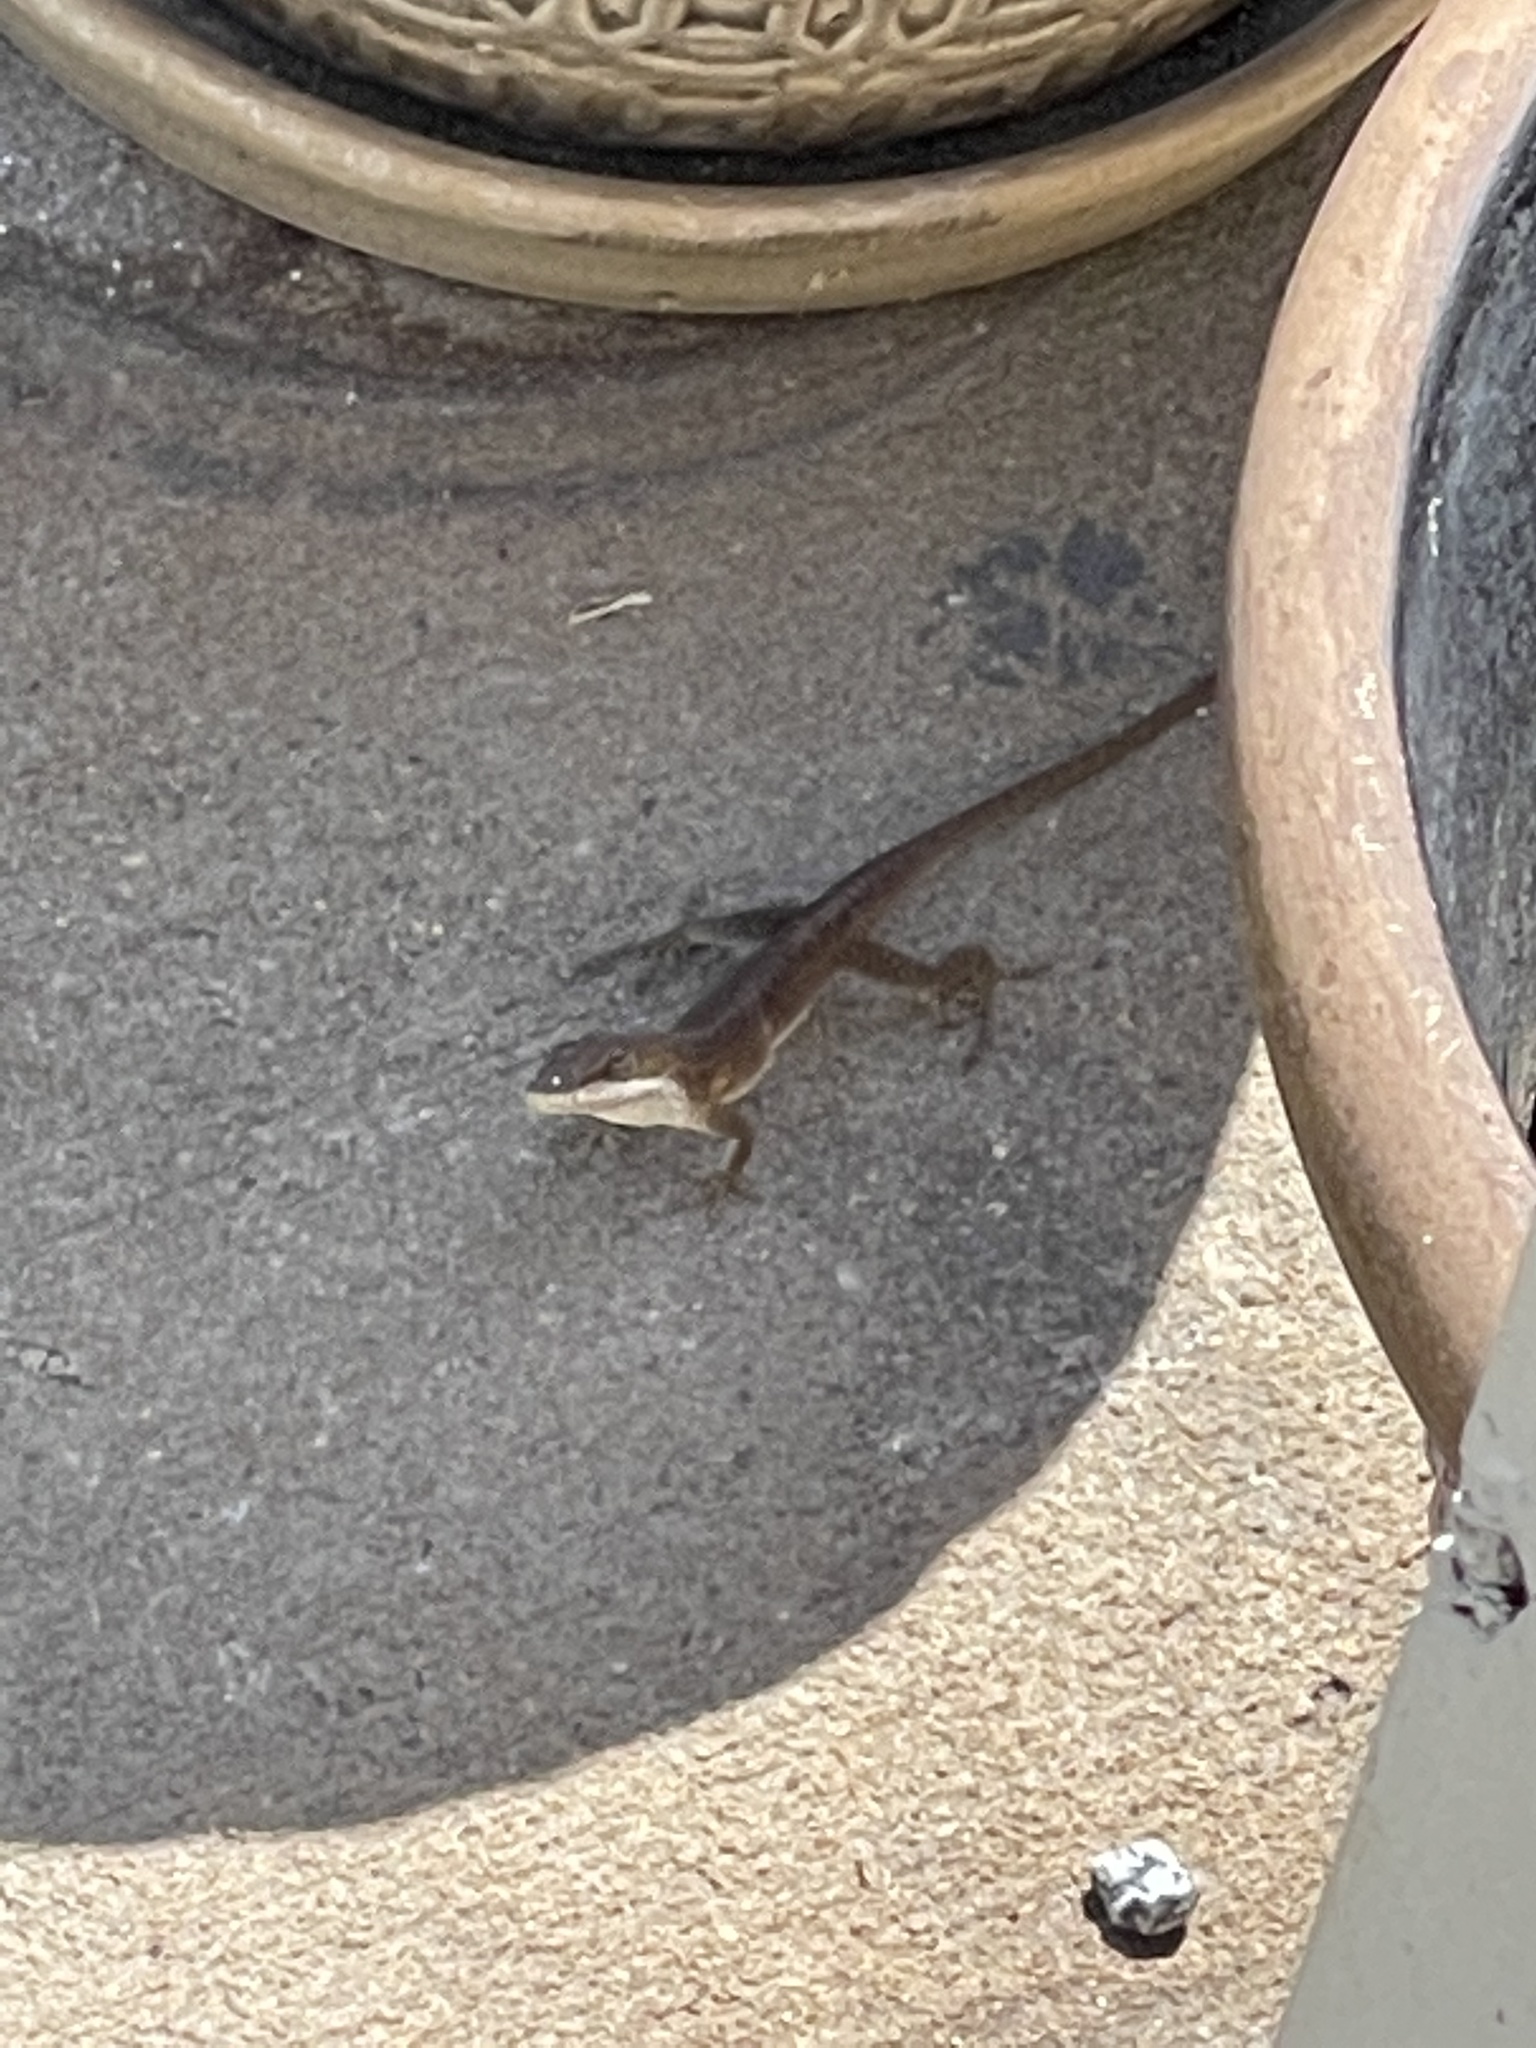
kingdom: Animalia
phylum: Chordata
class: Squamata
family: Dactyloidae
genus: Anolis
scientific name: Anolis carolinensis
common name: Green anole
